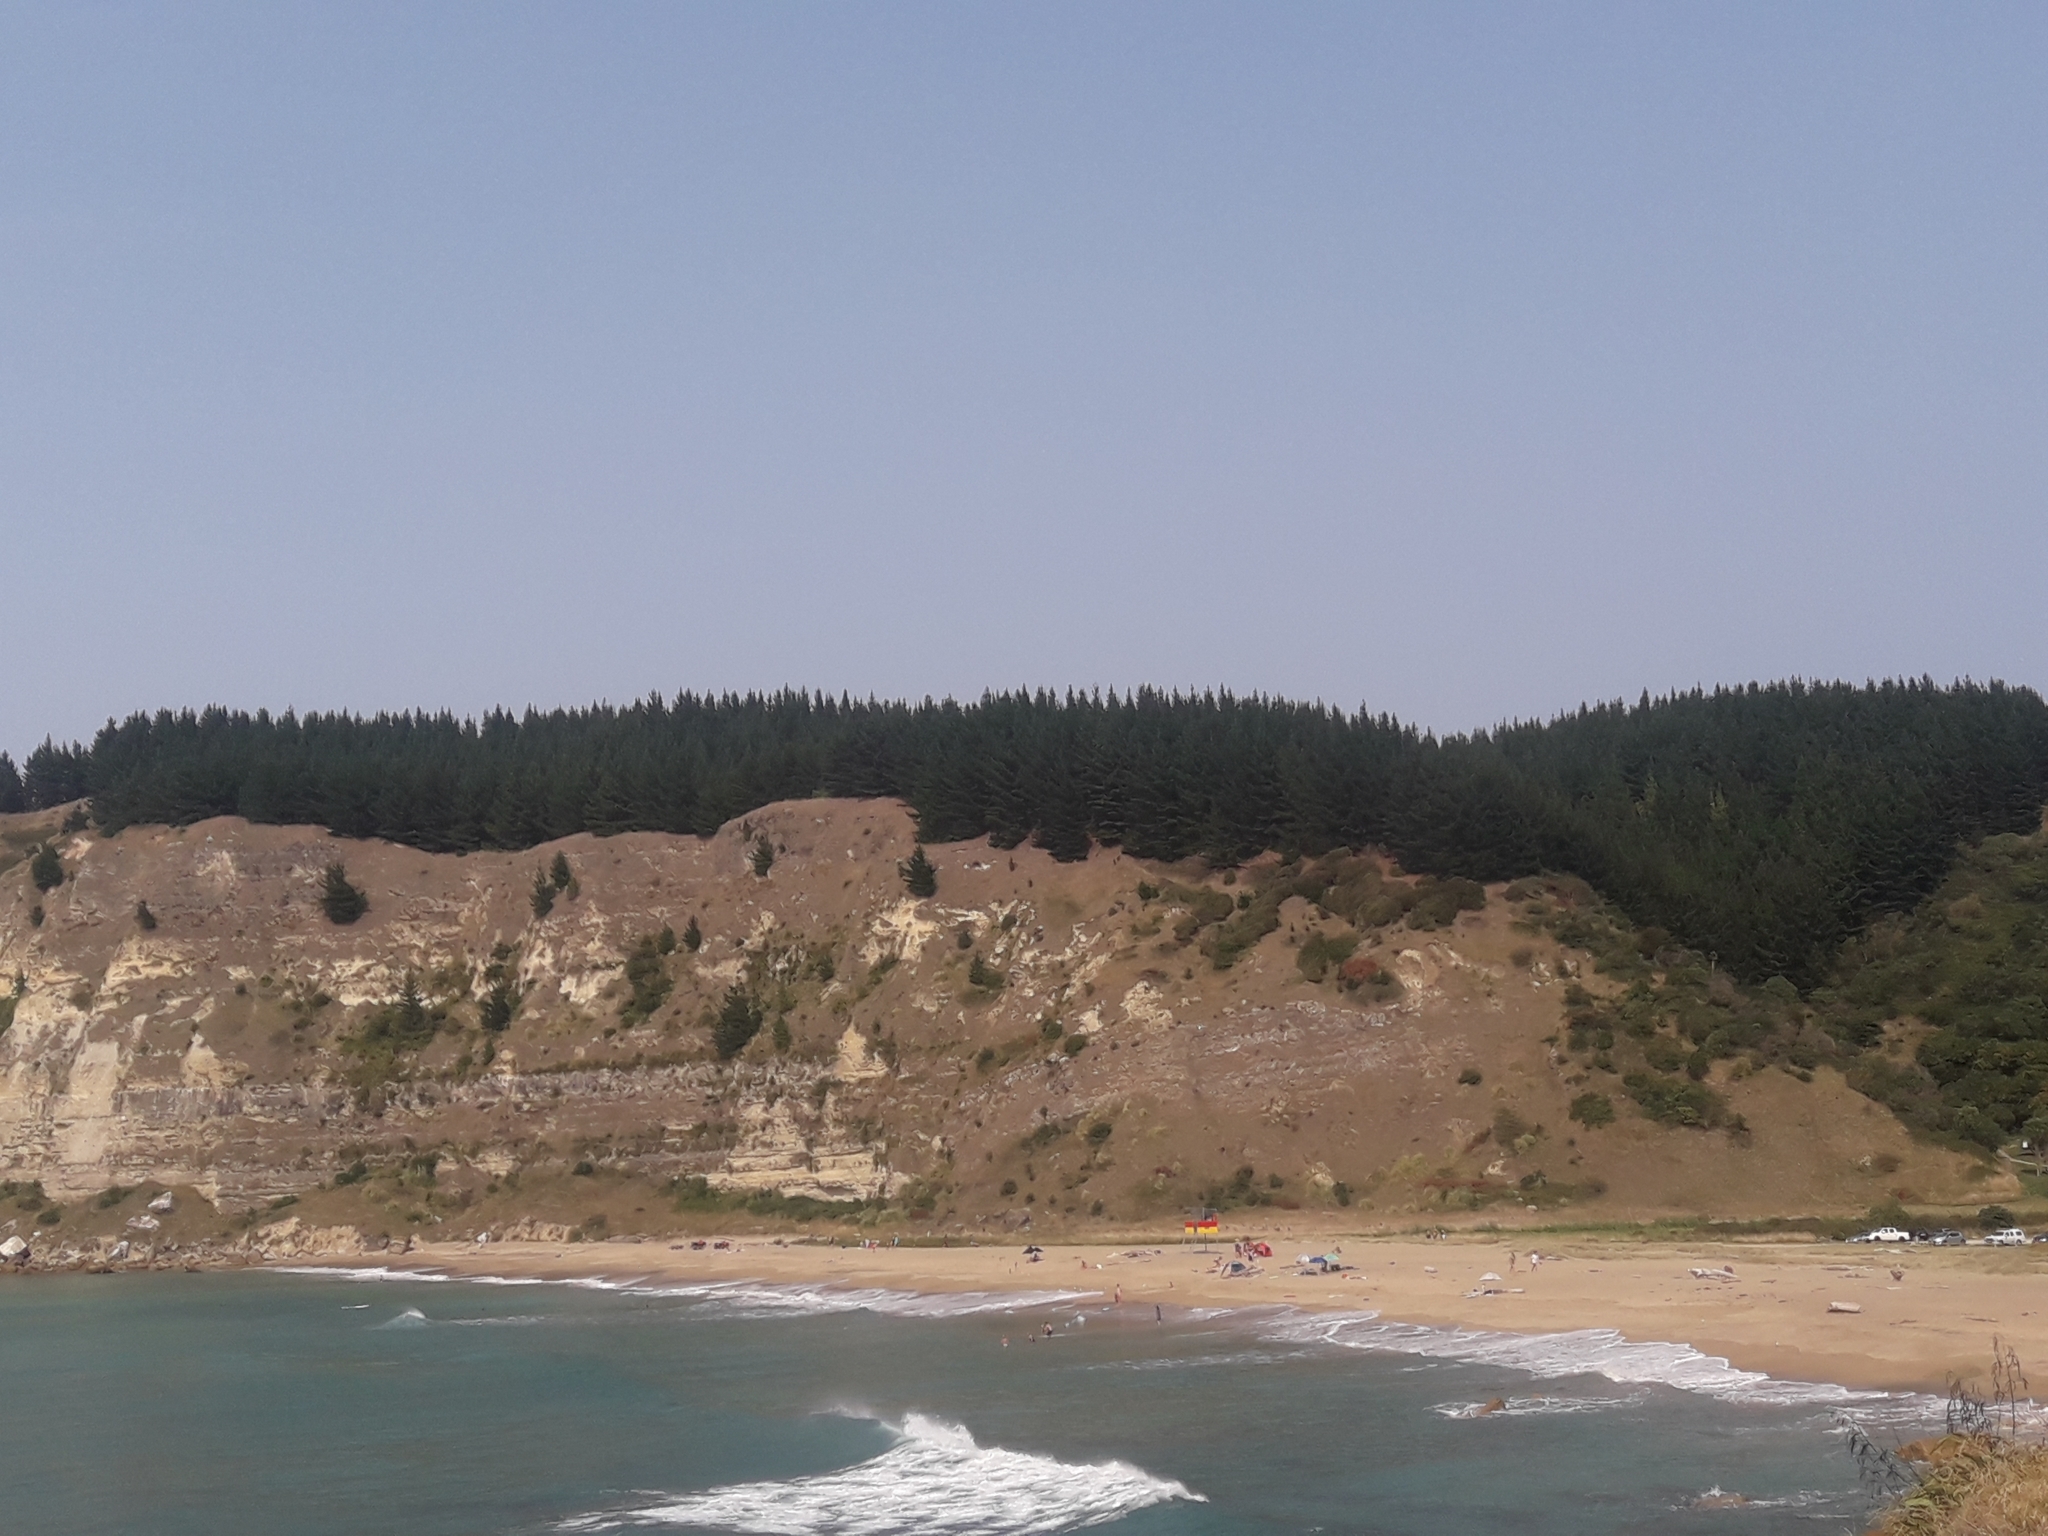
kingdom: Plantae
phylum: Tracheophyta
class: Pinopsida
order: Pinales
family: Pinaceae
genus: Pinus
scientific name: Pinus radiata
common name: Monterey pine
